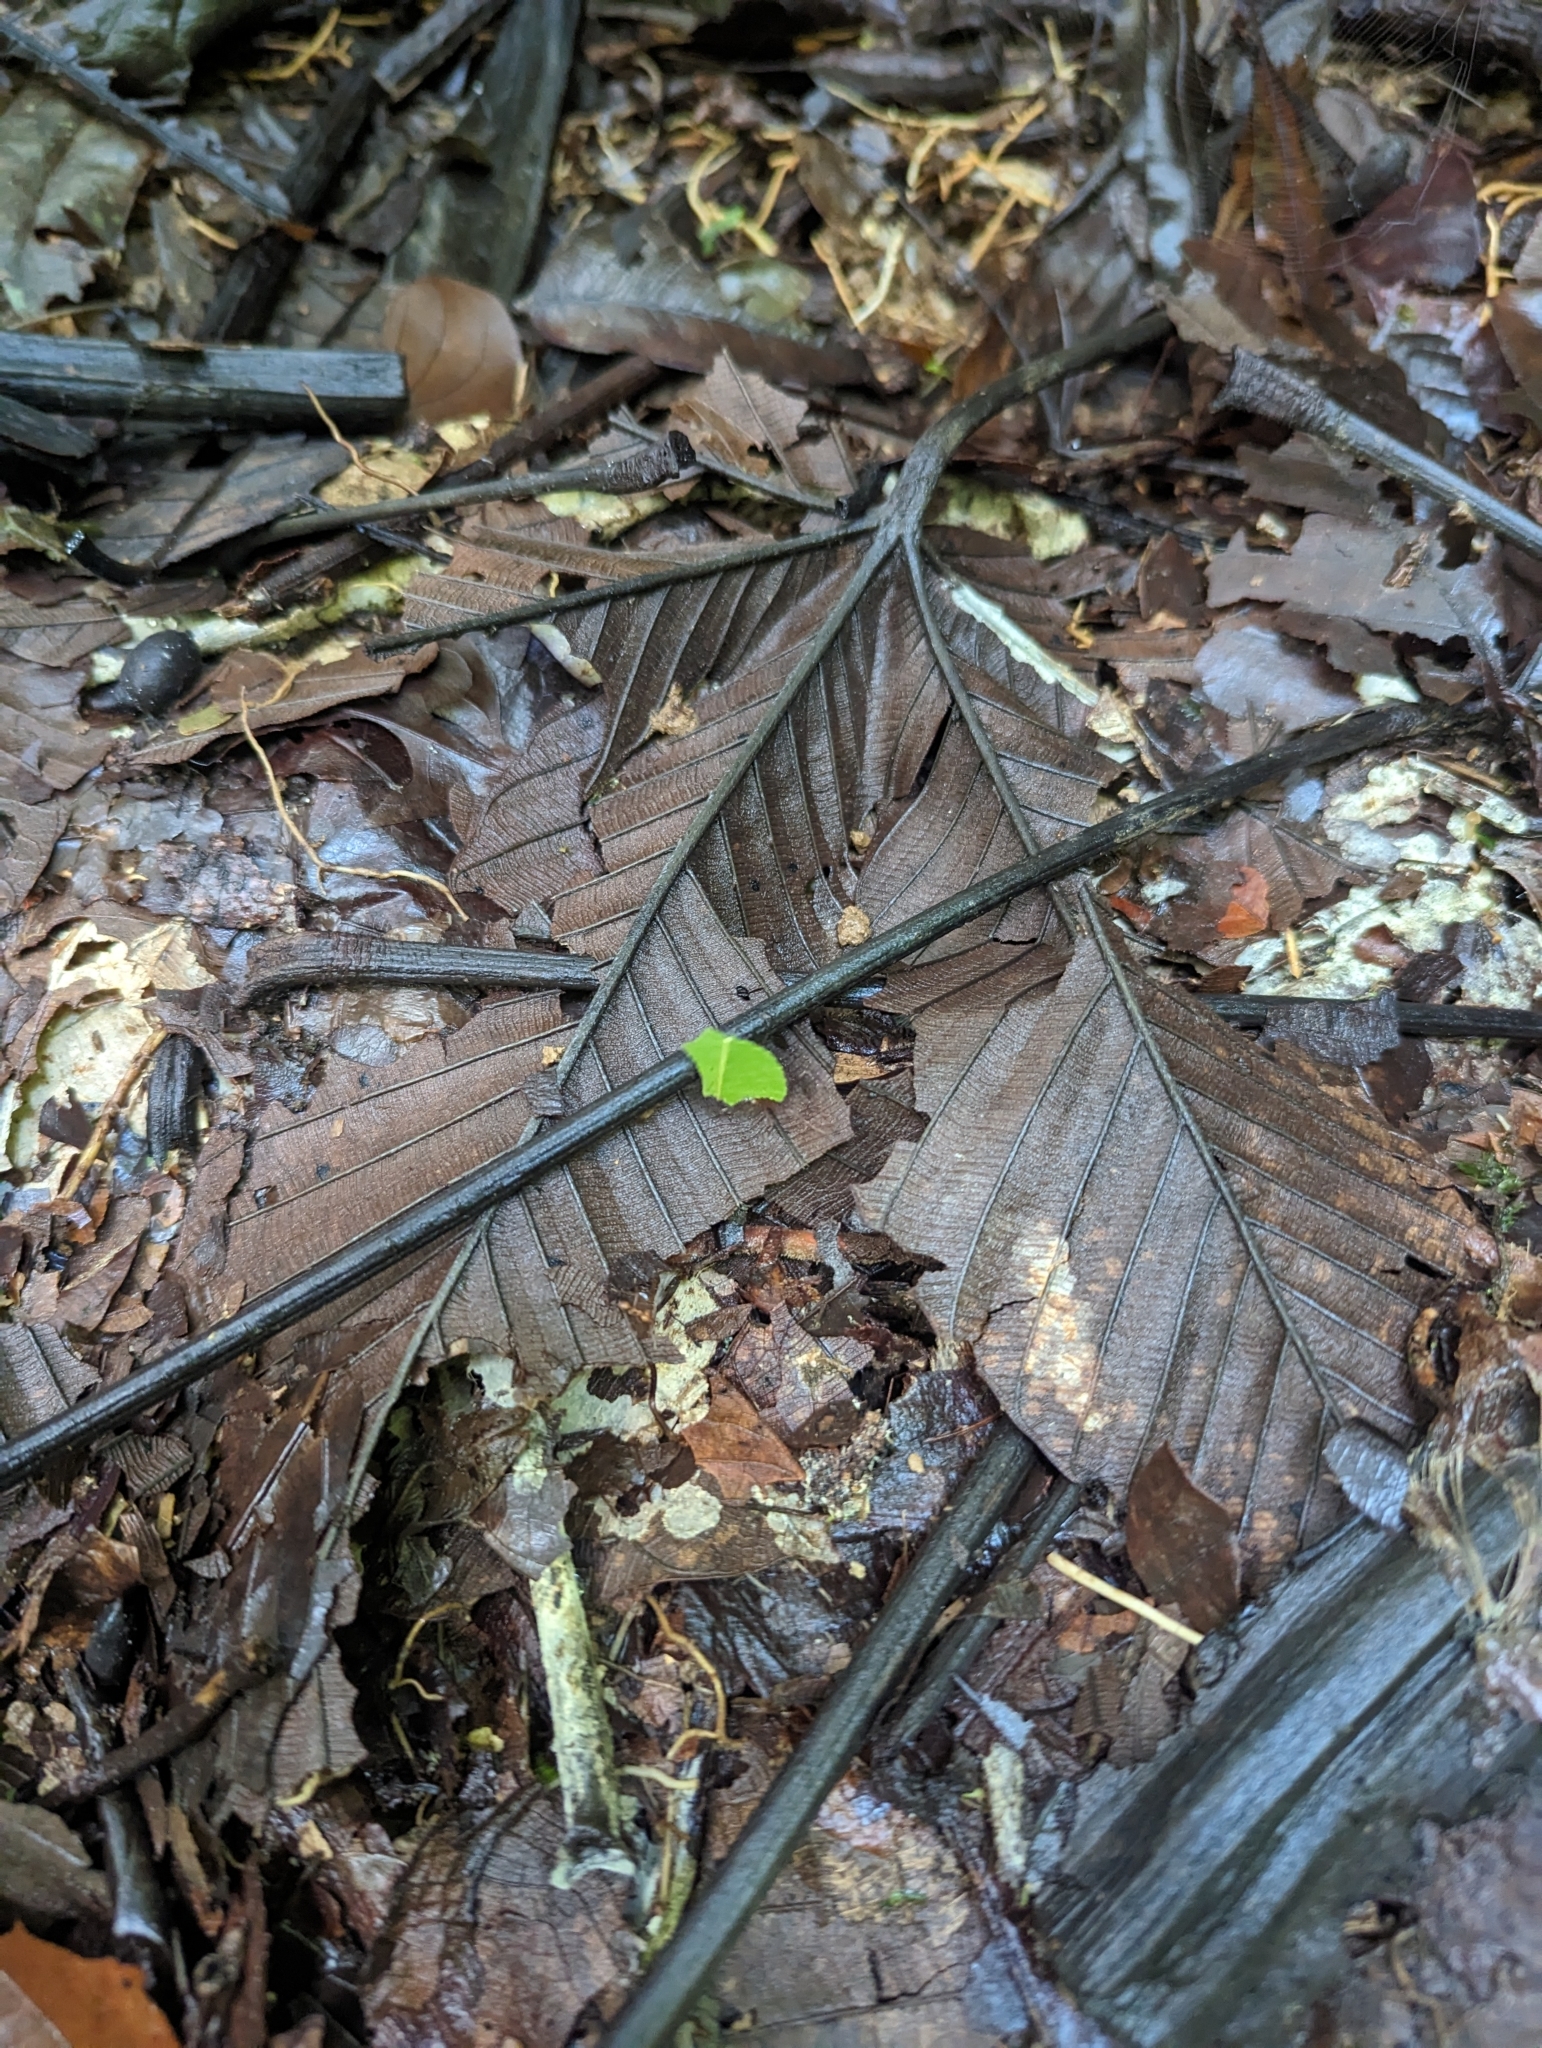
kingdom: Animalia
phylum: Arthropoda
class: Insecta
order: Hymenoptera
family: Formicidae
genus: Atta
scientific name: Atta cephalotes
